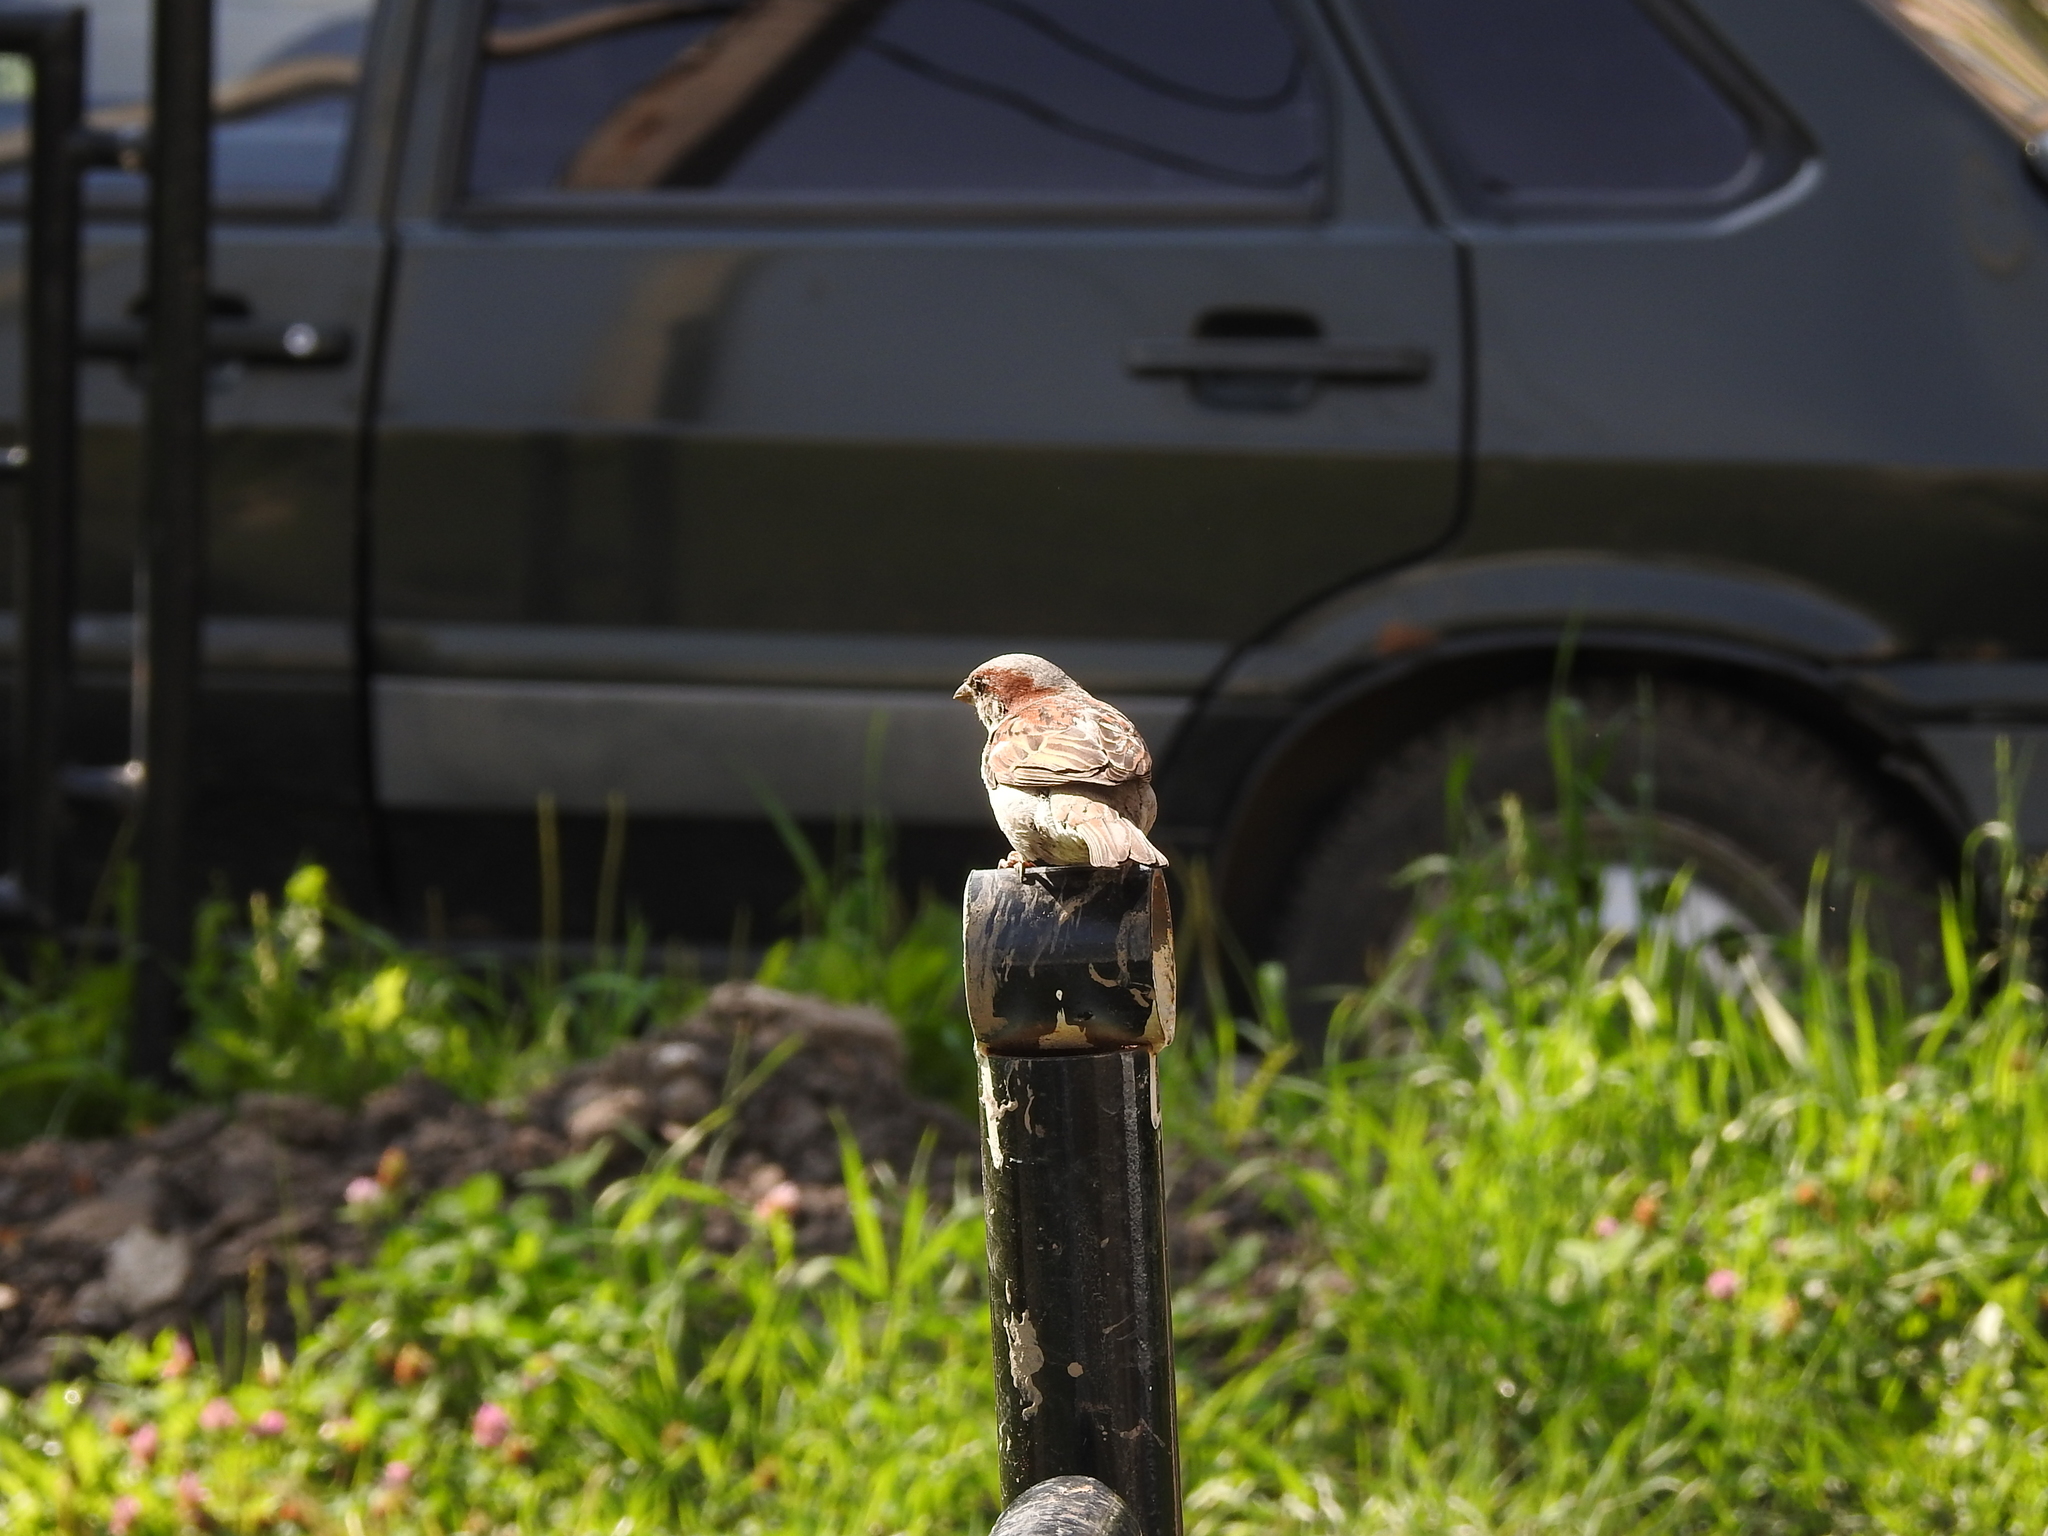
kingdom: Animalia
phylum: Chordata
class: Aves
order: Passeriformes
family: Passeridae
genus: Passer
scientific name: Passer domesticus
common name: House sparrow
